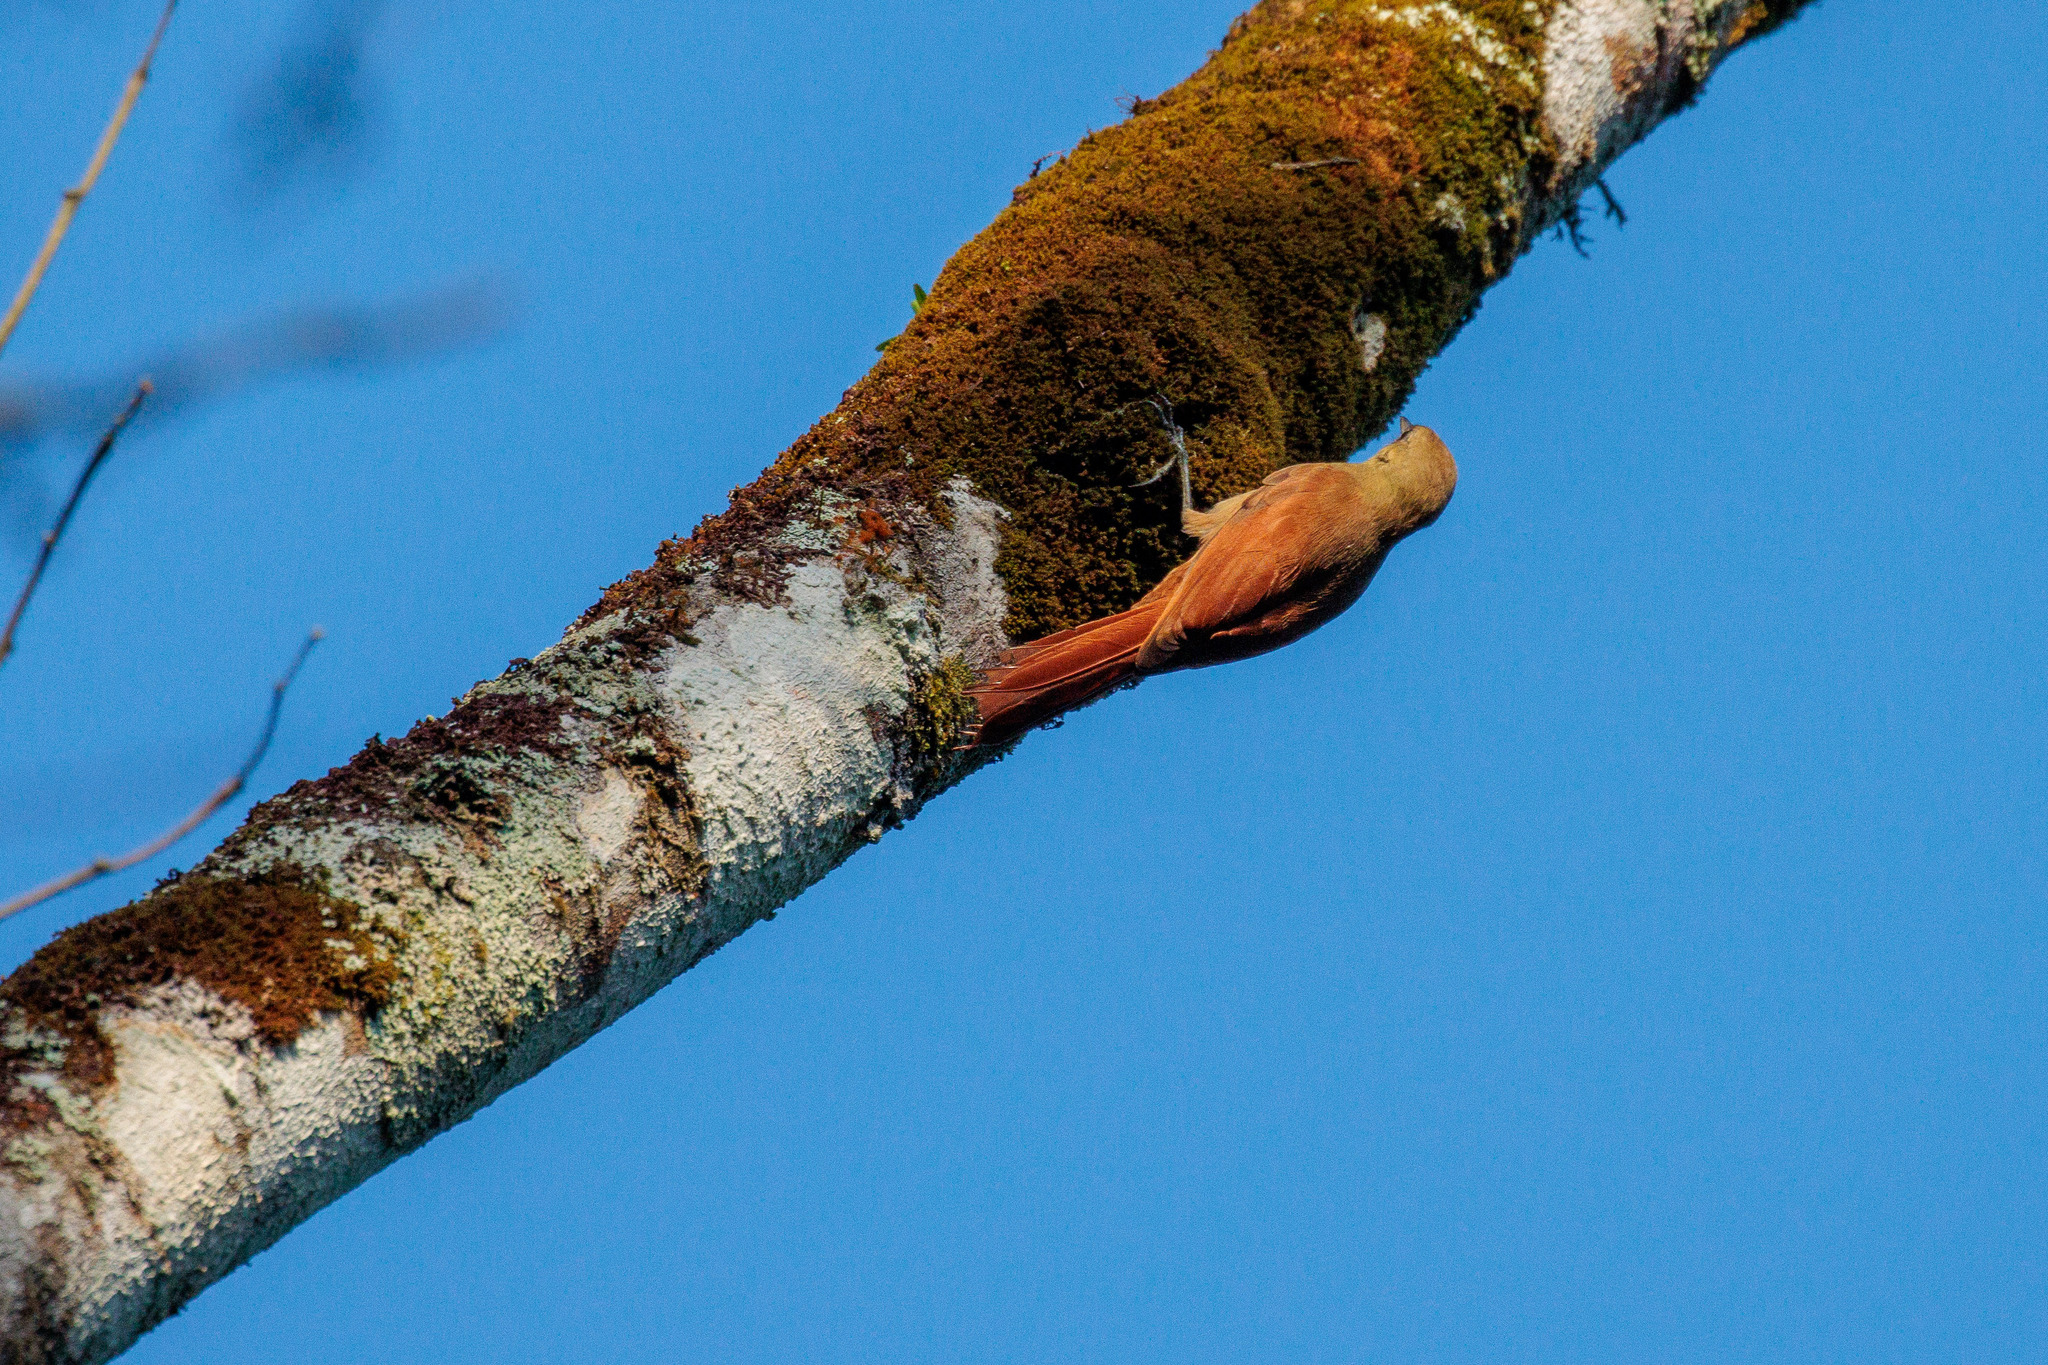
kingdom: Animalia
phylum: Chordata
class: Aves
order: Passeriformes
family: Furnariidae
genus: Sittasomus
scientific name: Sittasomus griseicapillus
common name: Olivaceous woodcreeper
